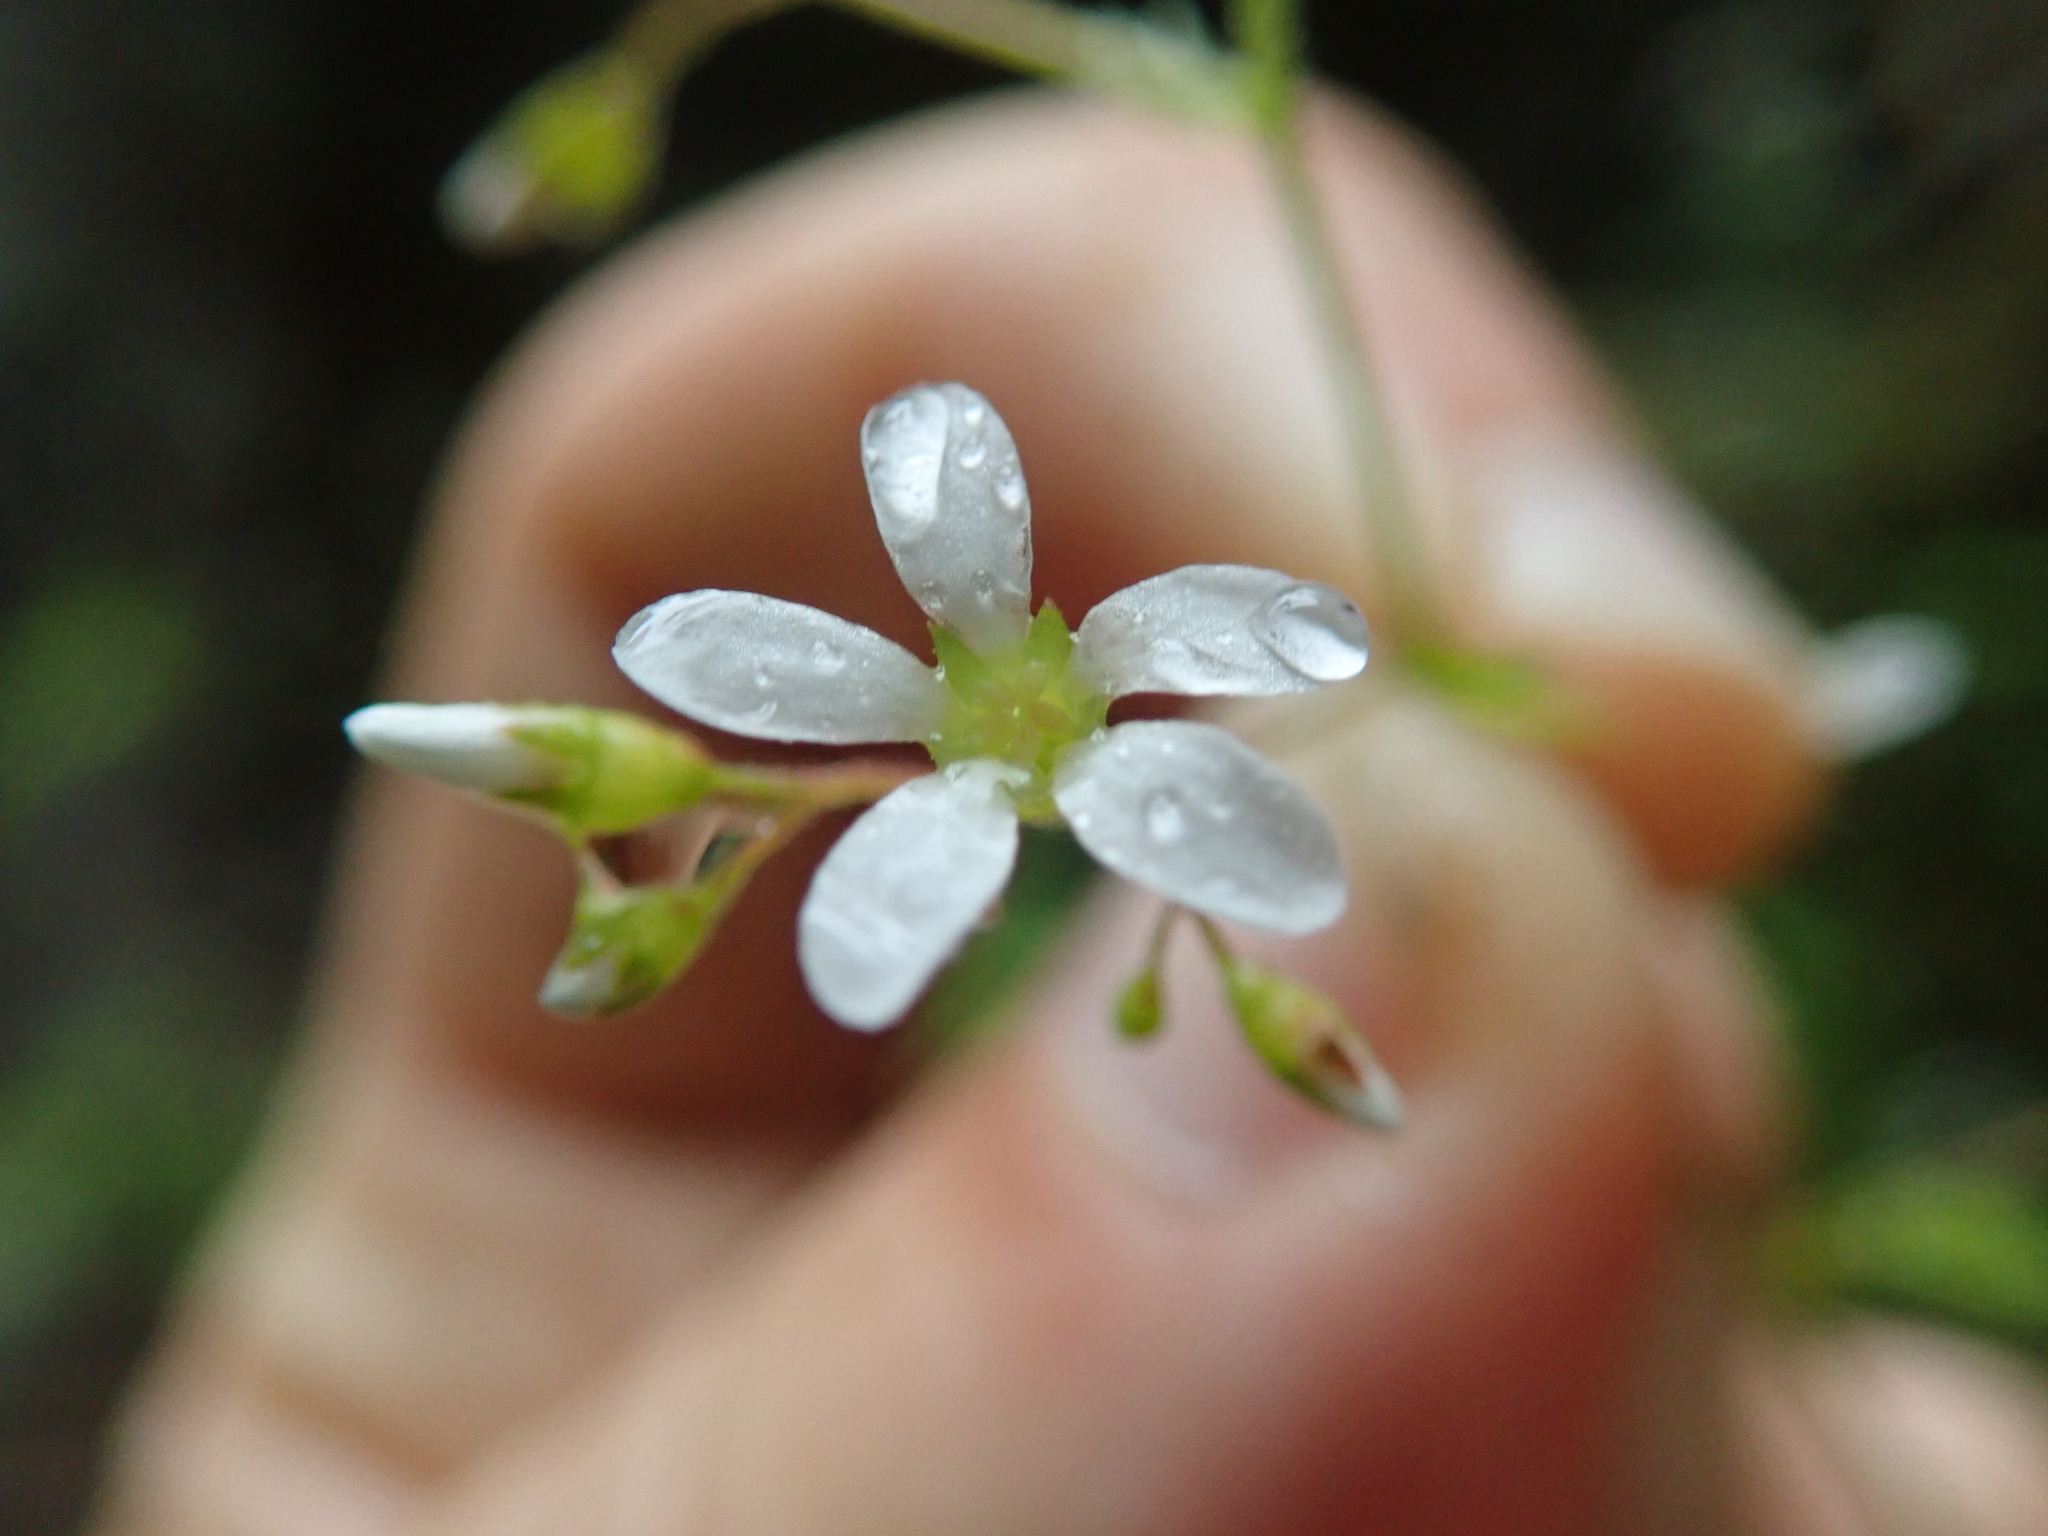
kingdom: Plantae
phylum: Tracheophyta
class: Magnoliopsida
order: Saxifragales
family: Saxifragaceae
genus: Boykinia
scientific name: Boykinia occidentalis
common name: Coast boykinia
